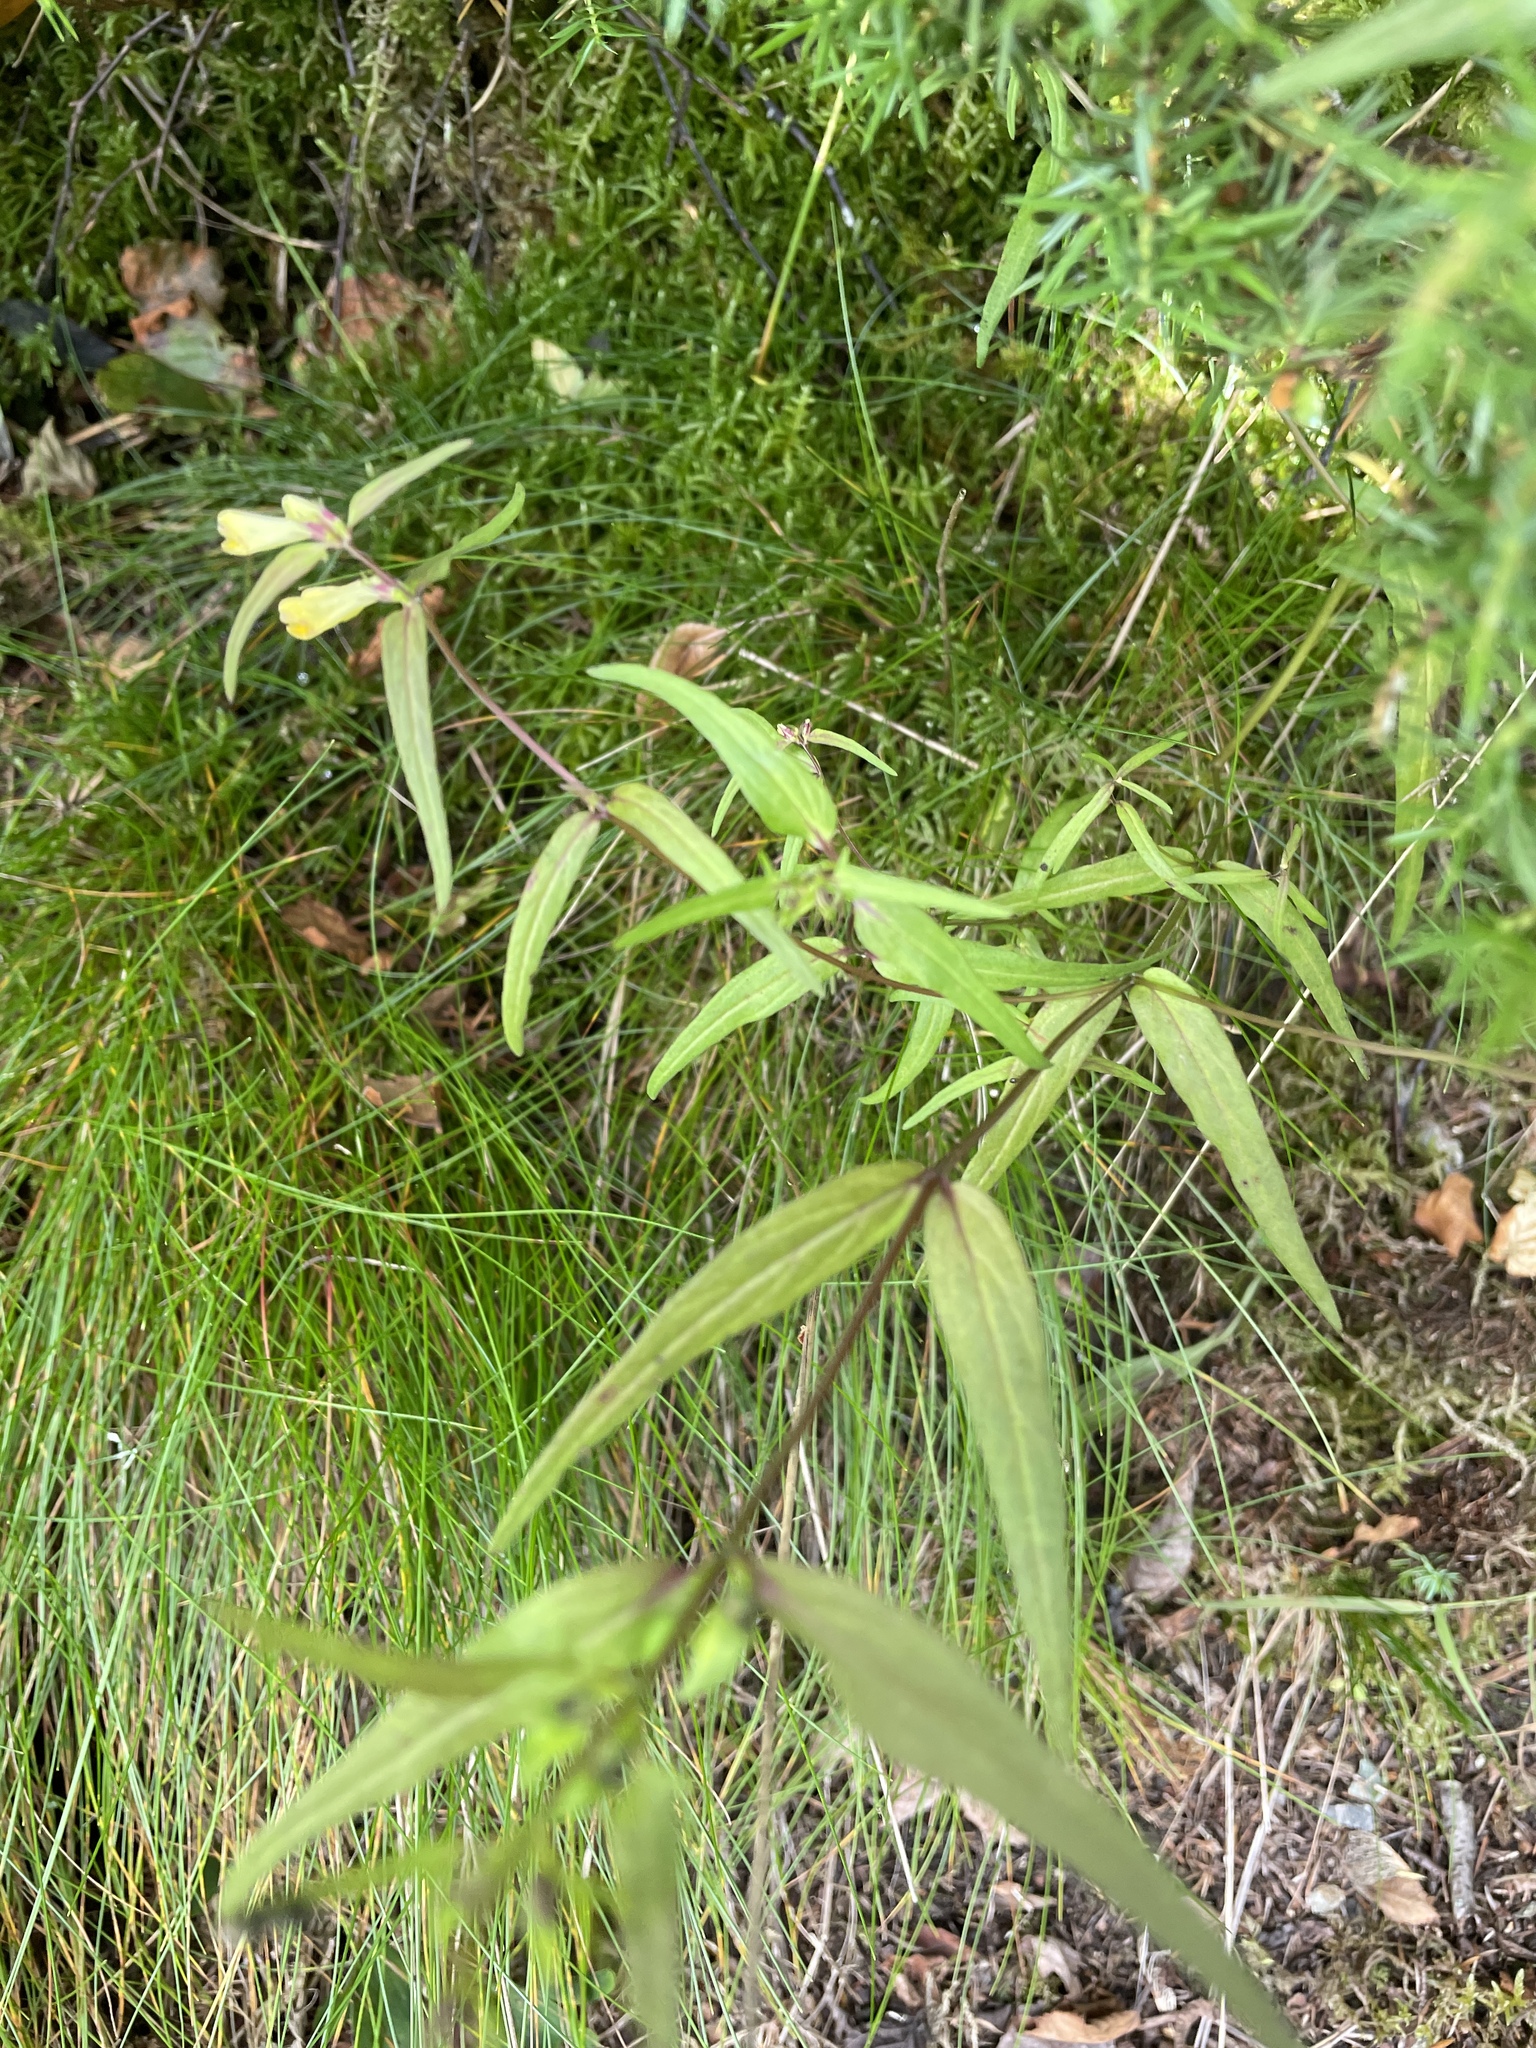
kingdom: Plantae
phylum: Tracheophyta
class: Magnoliopsida
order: Lamiales
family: Orobanchaceae
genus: Melampyrum
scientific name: Melampyrum pratense
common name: Common cow-wheat
